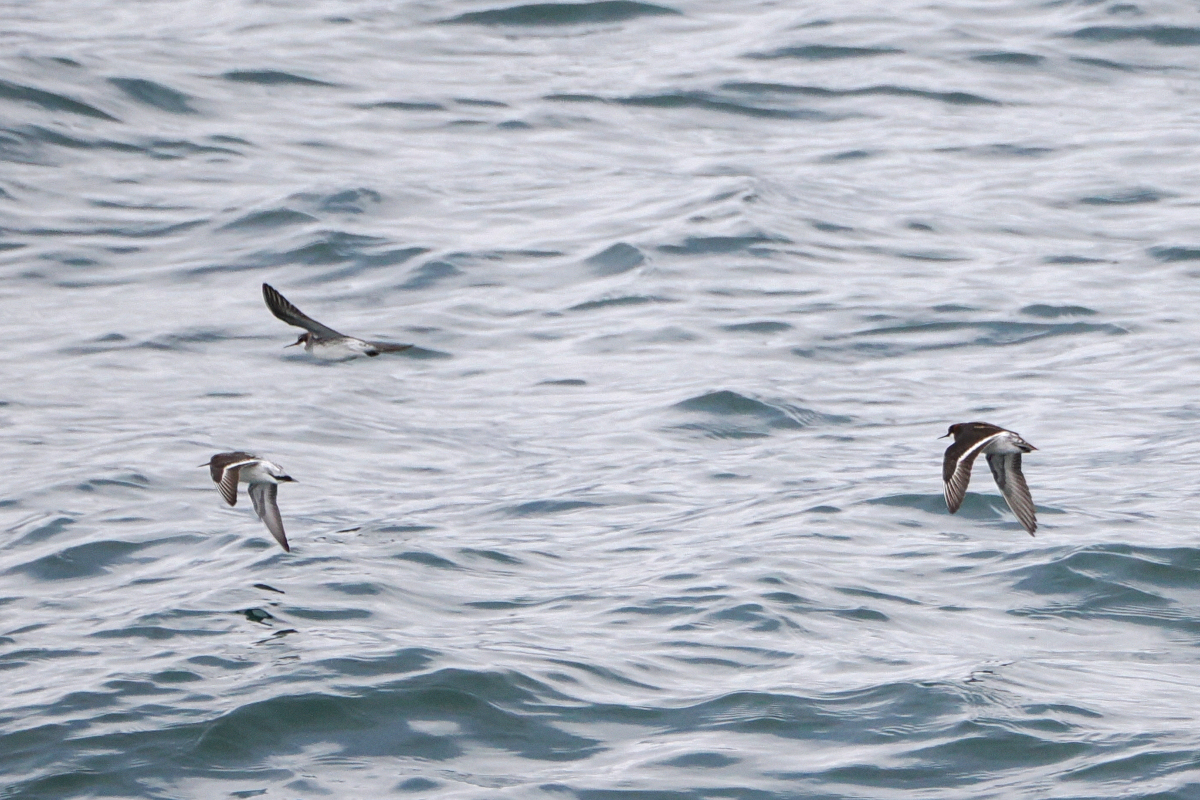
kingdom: Animalia
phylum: Chordata
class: Aves
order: Charadriiformes
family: Scolopacidae
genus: Phalaropus
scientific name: Phalaropus lobatus
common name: Red-necked phalarope
